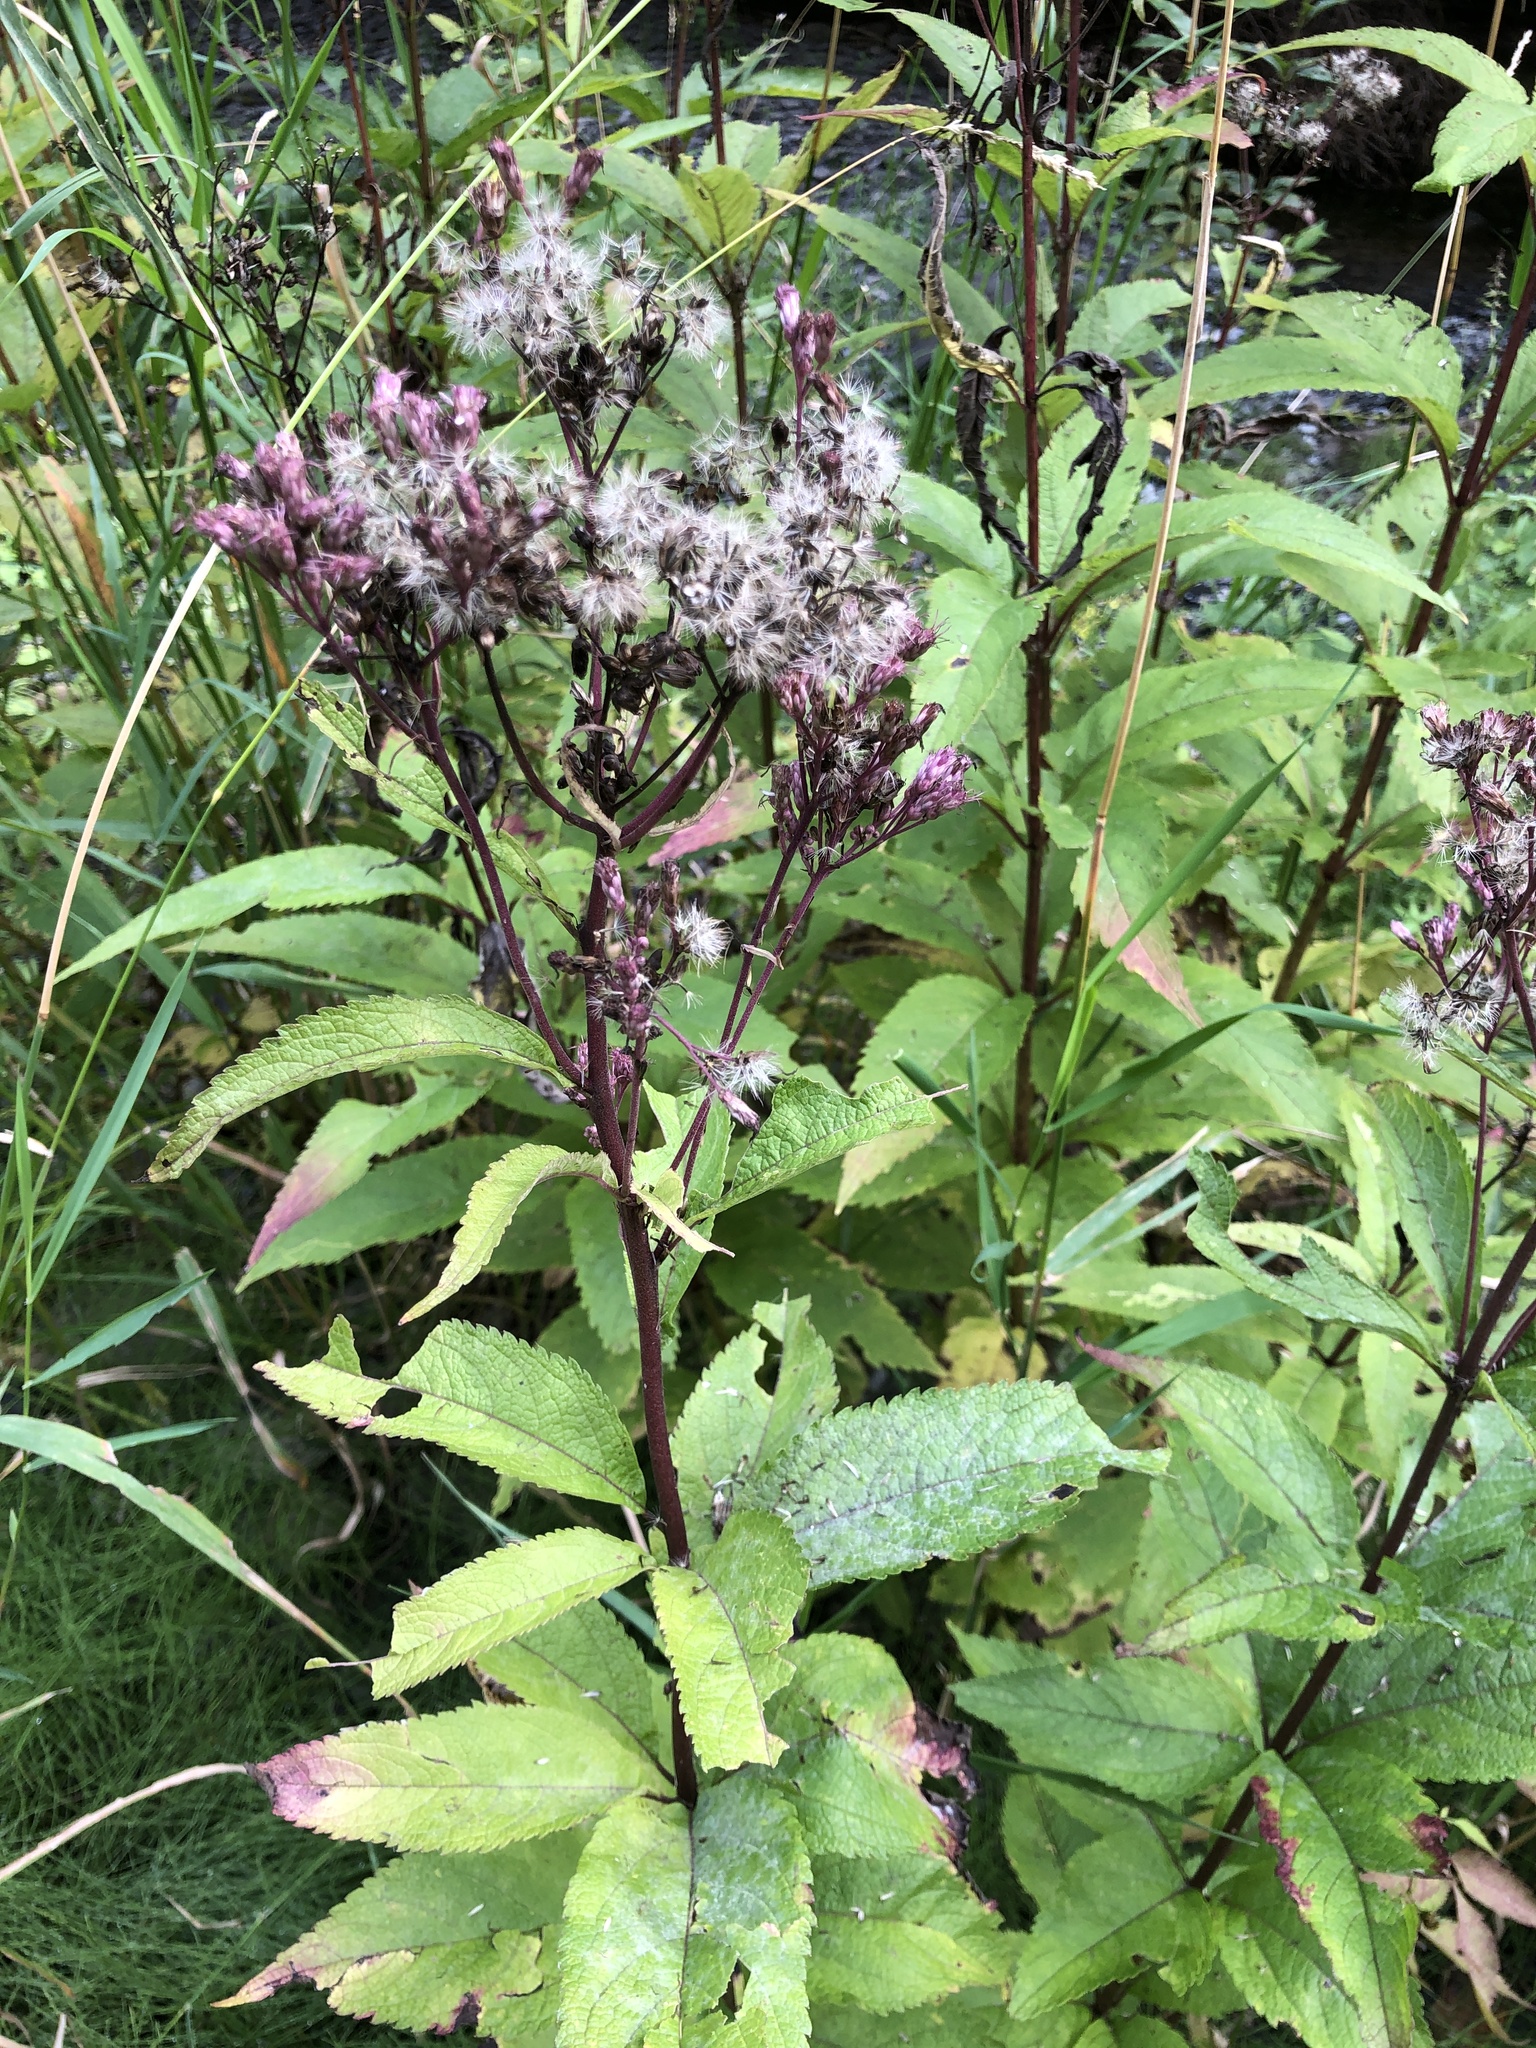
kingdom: Plantae
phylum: Tracheophyta
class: Magnoliopsida
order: Asterales
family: Asteraceae
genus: Eutrochium
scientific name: Eutrochium maculatum
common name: Spotted joe pye weed
